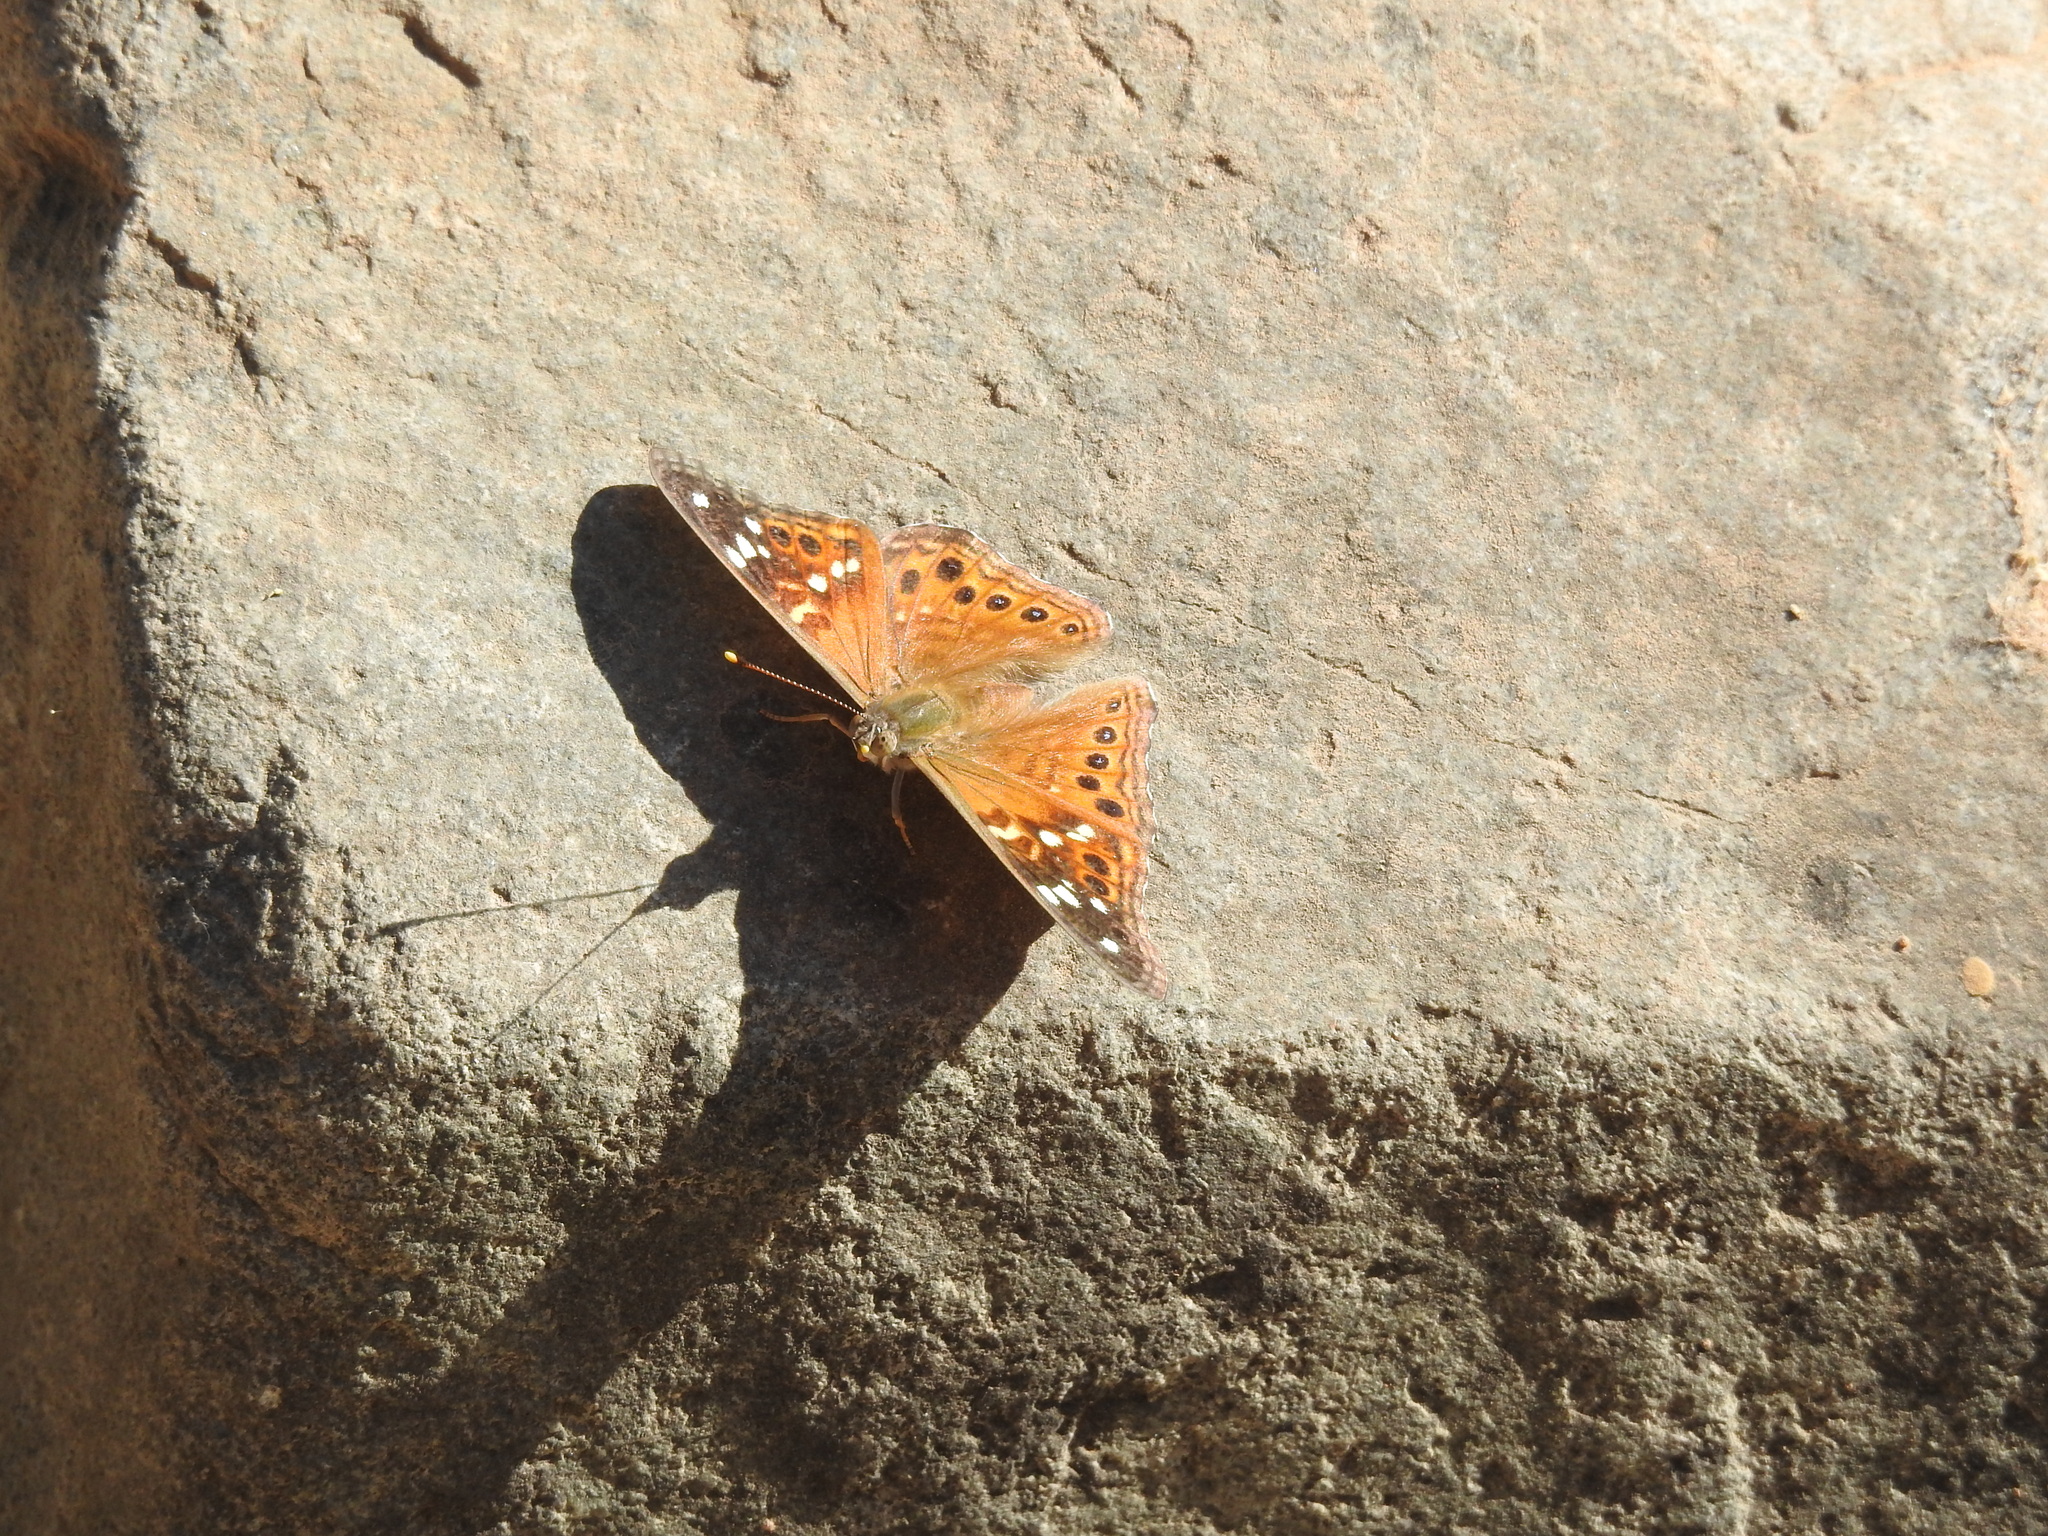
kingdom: Animalia
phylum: Arthropoda
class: Insecta
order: Lepidoptera
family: Nymphalidae
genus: Asterocampa
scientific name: Asterocampa leilia
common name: Empress leilia
